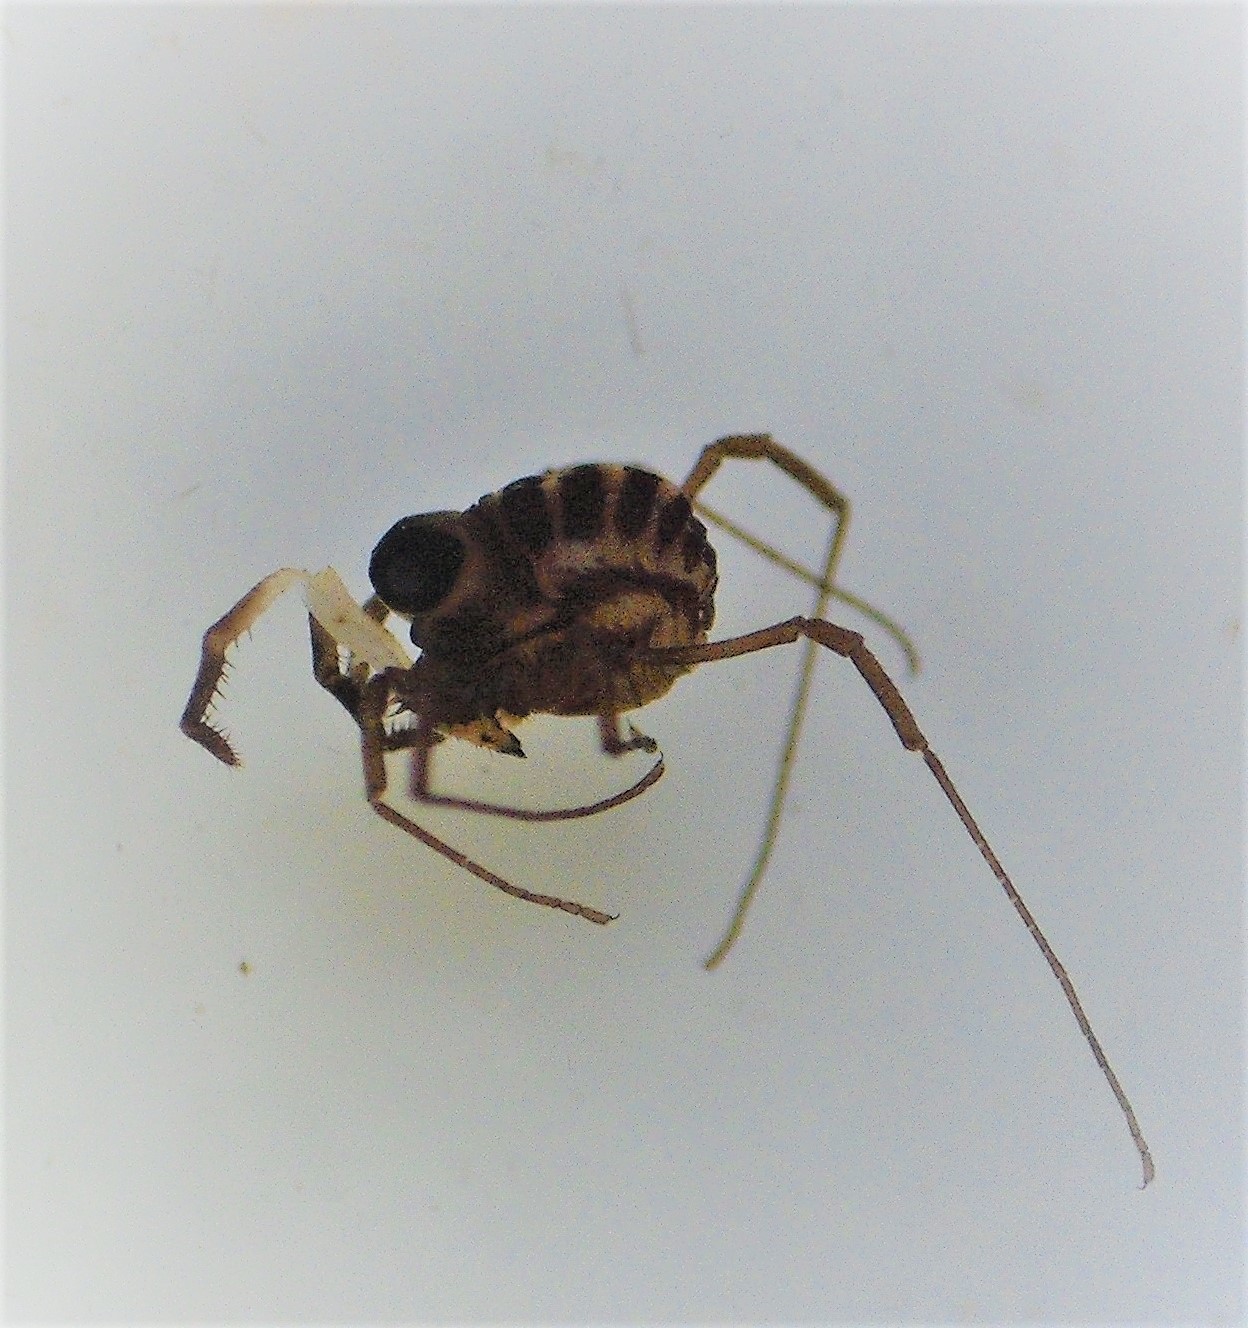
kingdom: Animalia
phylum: Arthropoda
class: Arachnida
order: Opiliones
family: Acropsopilionidae
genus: Acropsopilio
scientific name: Acropsopilio neozelandiae
